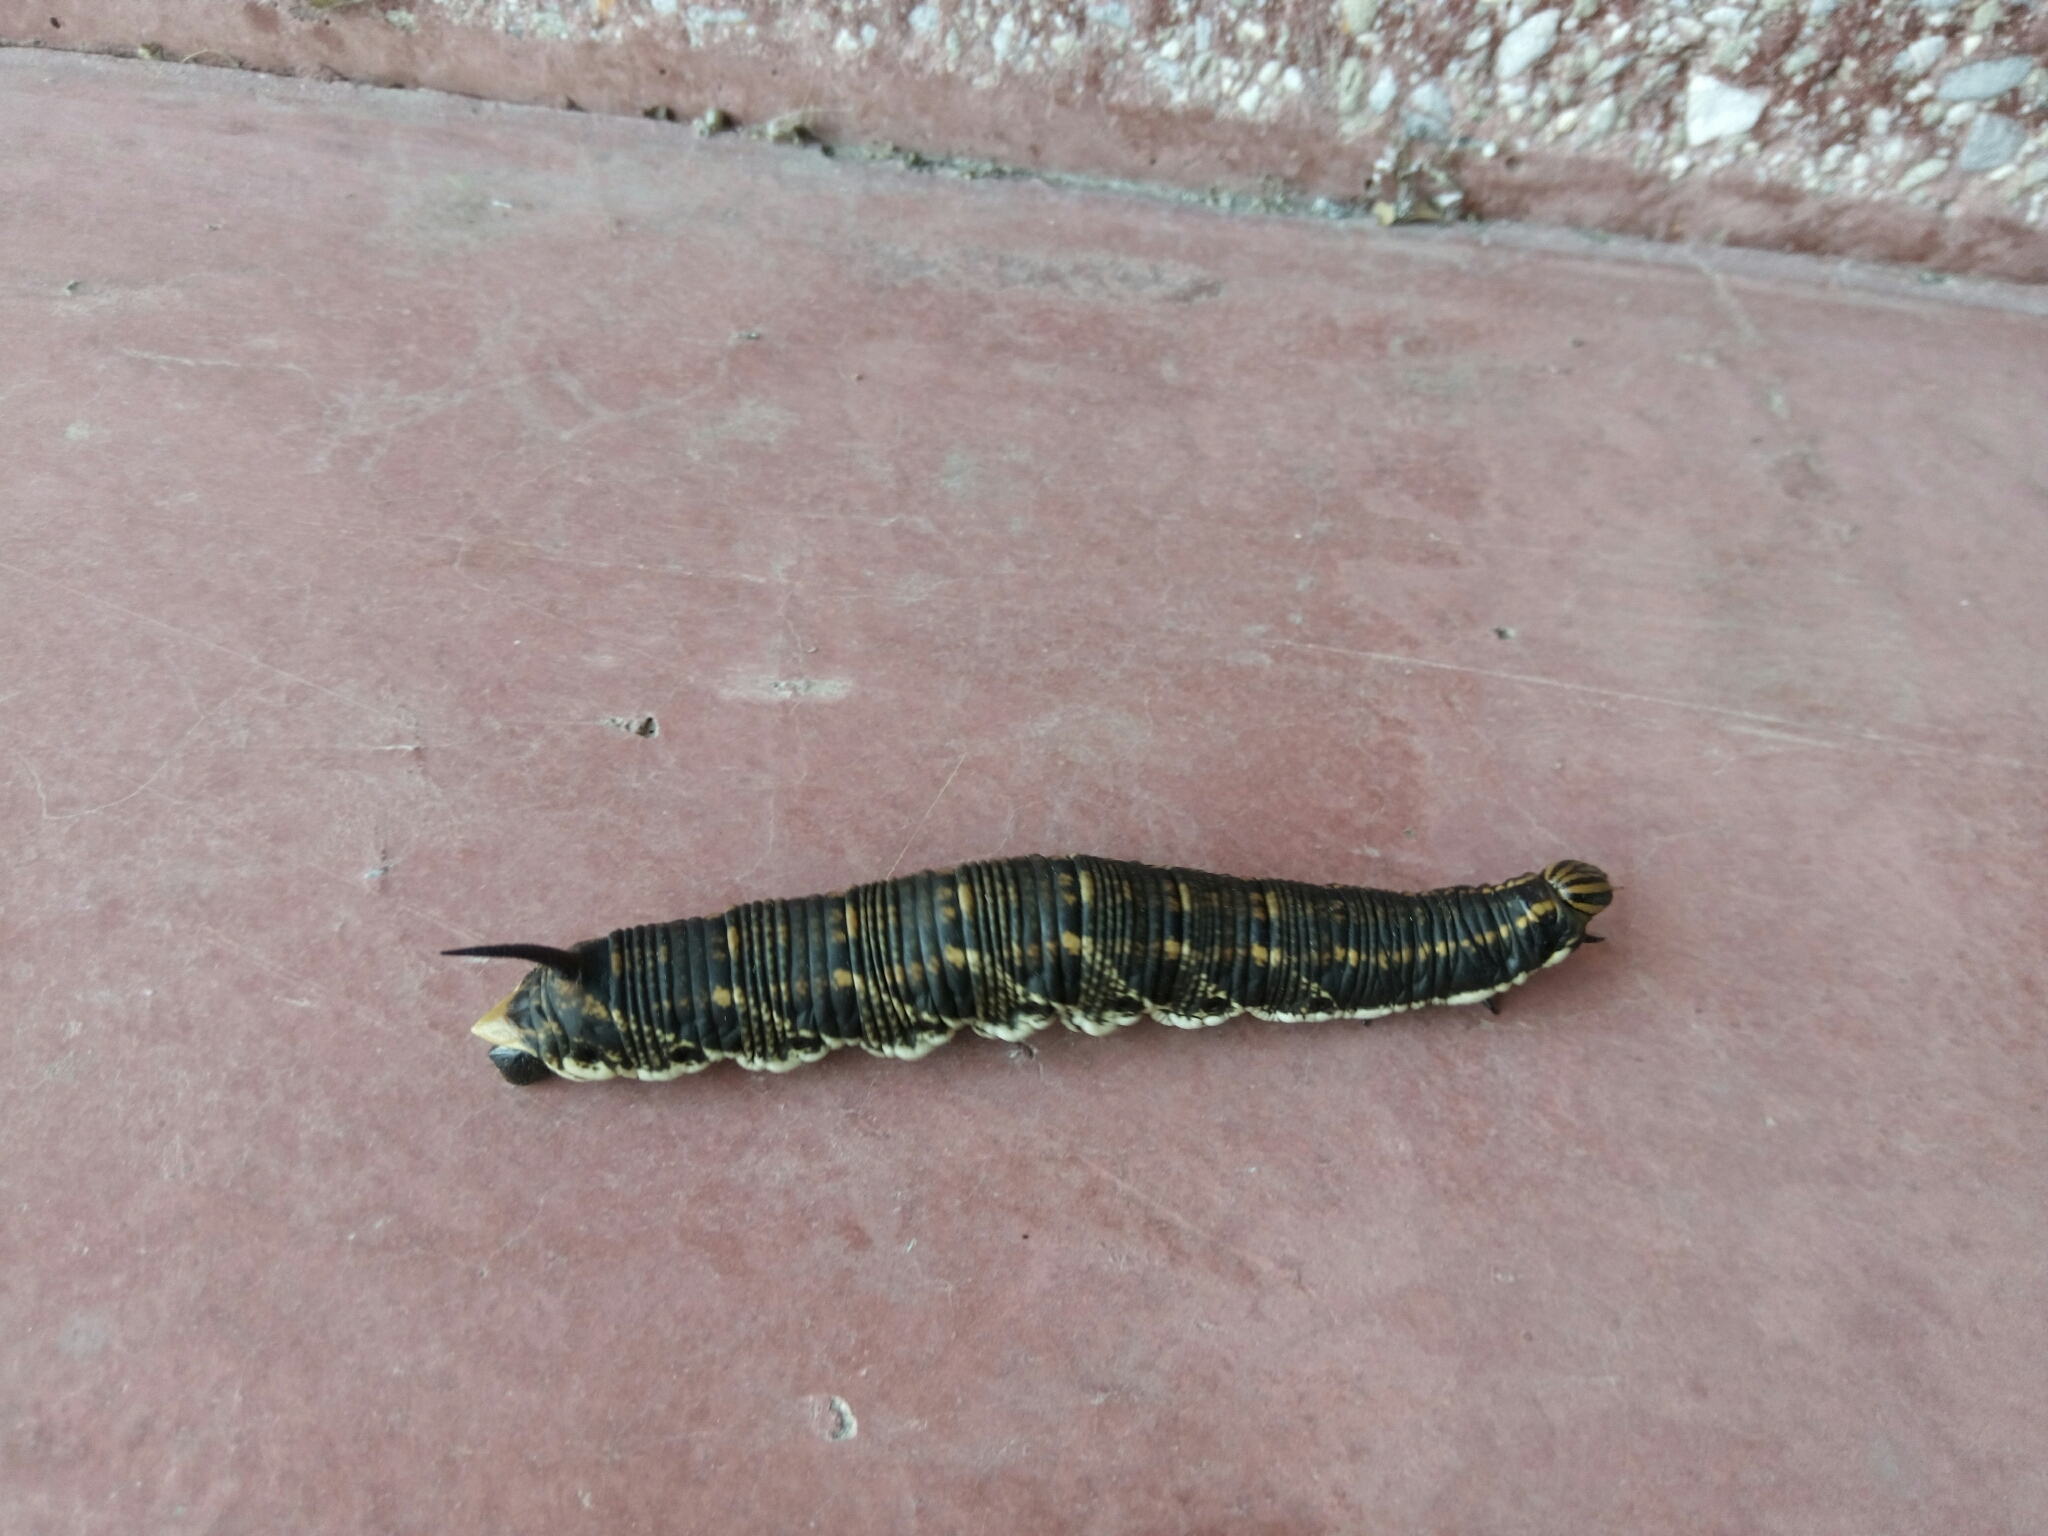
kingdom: Animalia
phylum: Arthropoda
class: Insecta
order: Lepidoptera
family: Sphingidae
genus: Agrius
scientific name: Agrius convolvuli
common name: Convolvulus hawkmoth
